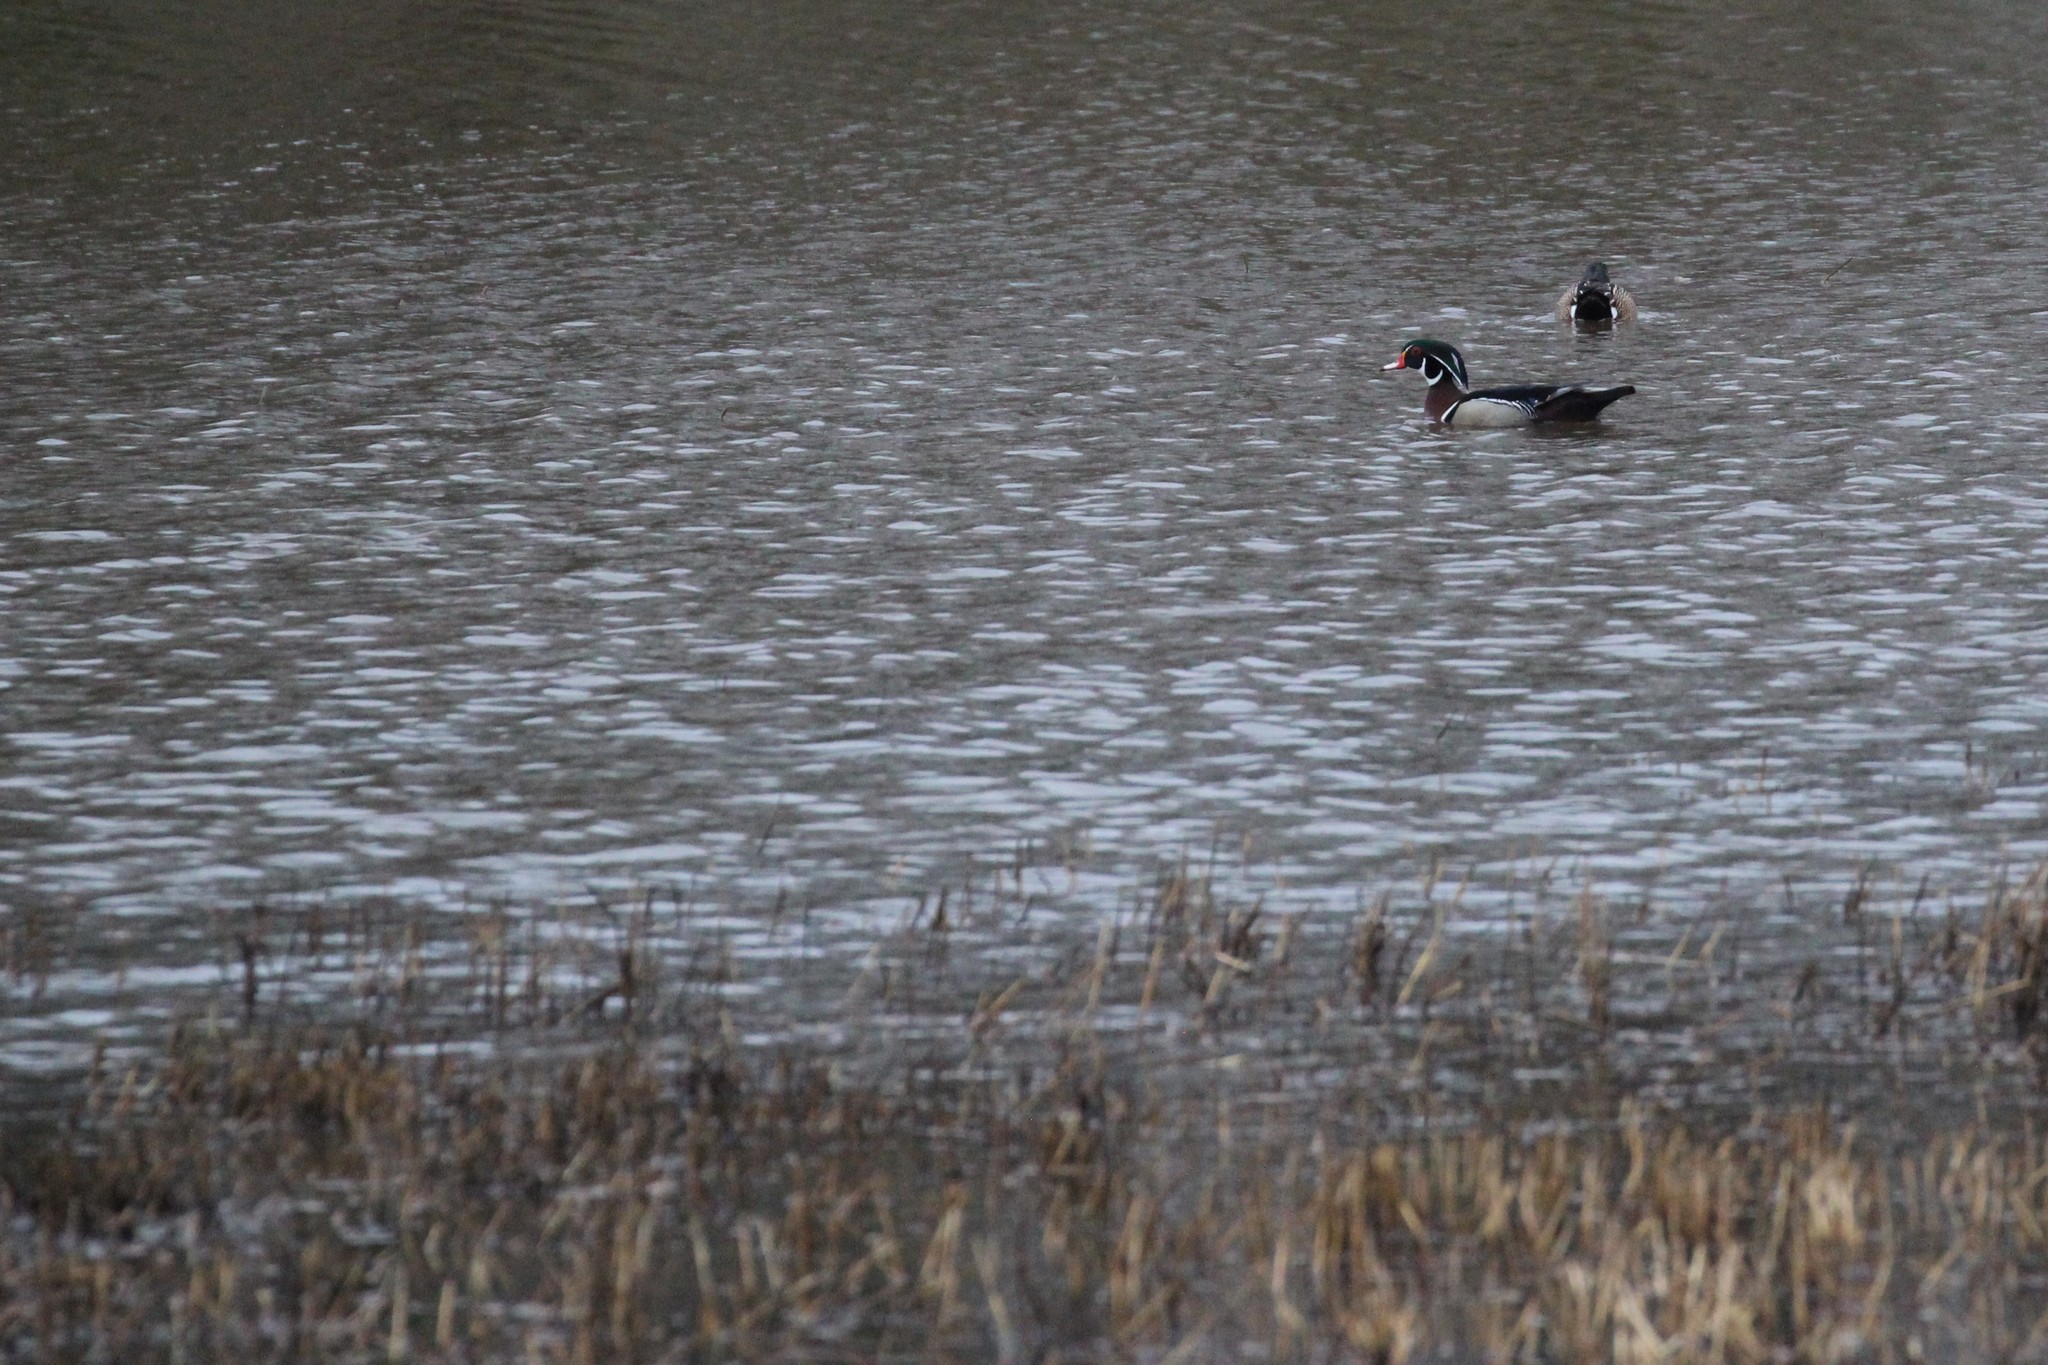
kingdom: Animalia
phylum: Chordata
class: Aves
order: Anseriformes
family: Anatidae
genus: Aix
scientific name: Aix sponsa
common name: Wood duck
